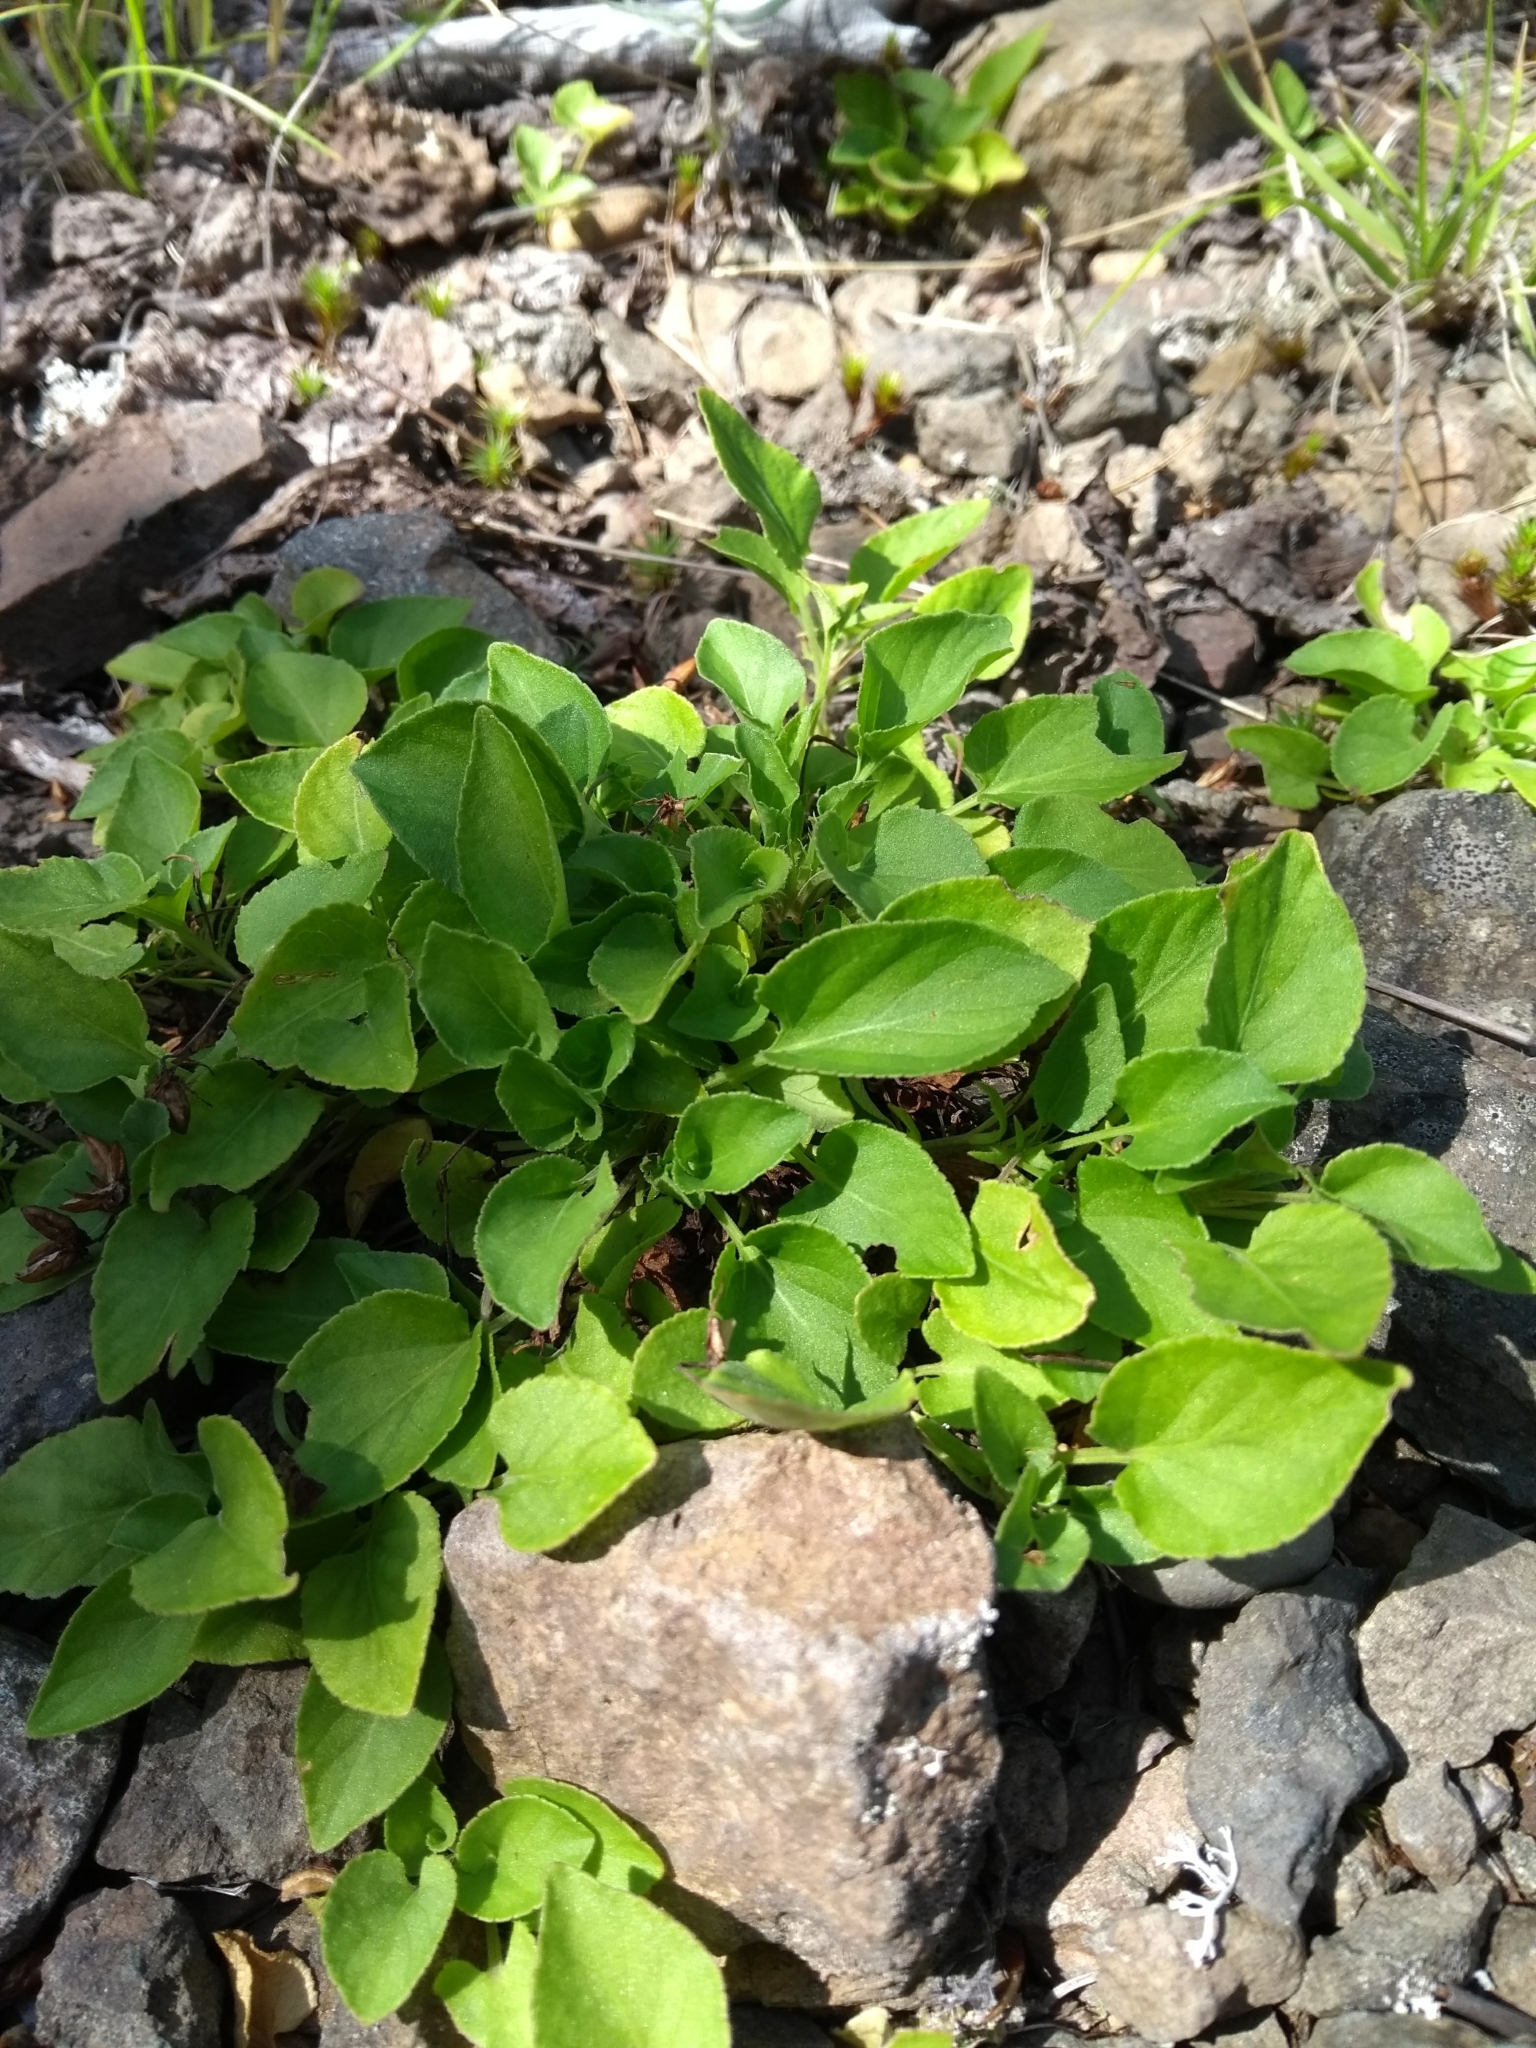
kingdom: Plantae
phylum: Tracheophyta
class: Magnoliopsida
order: Malpighiales
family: Violaceae
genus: Viola
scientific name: Viola adunca
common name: Sand violet
